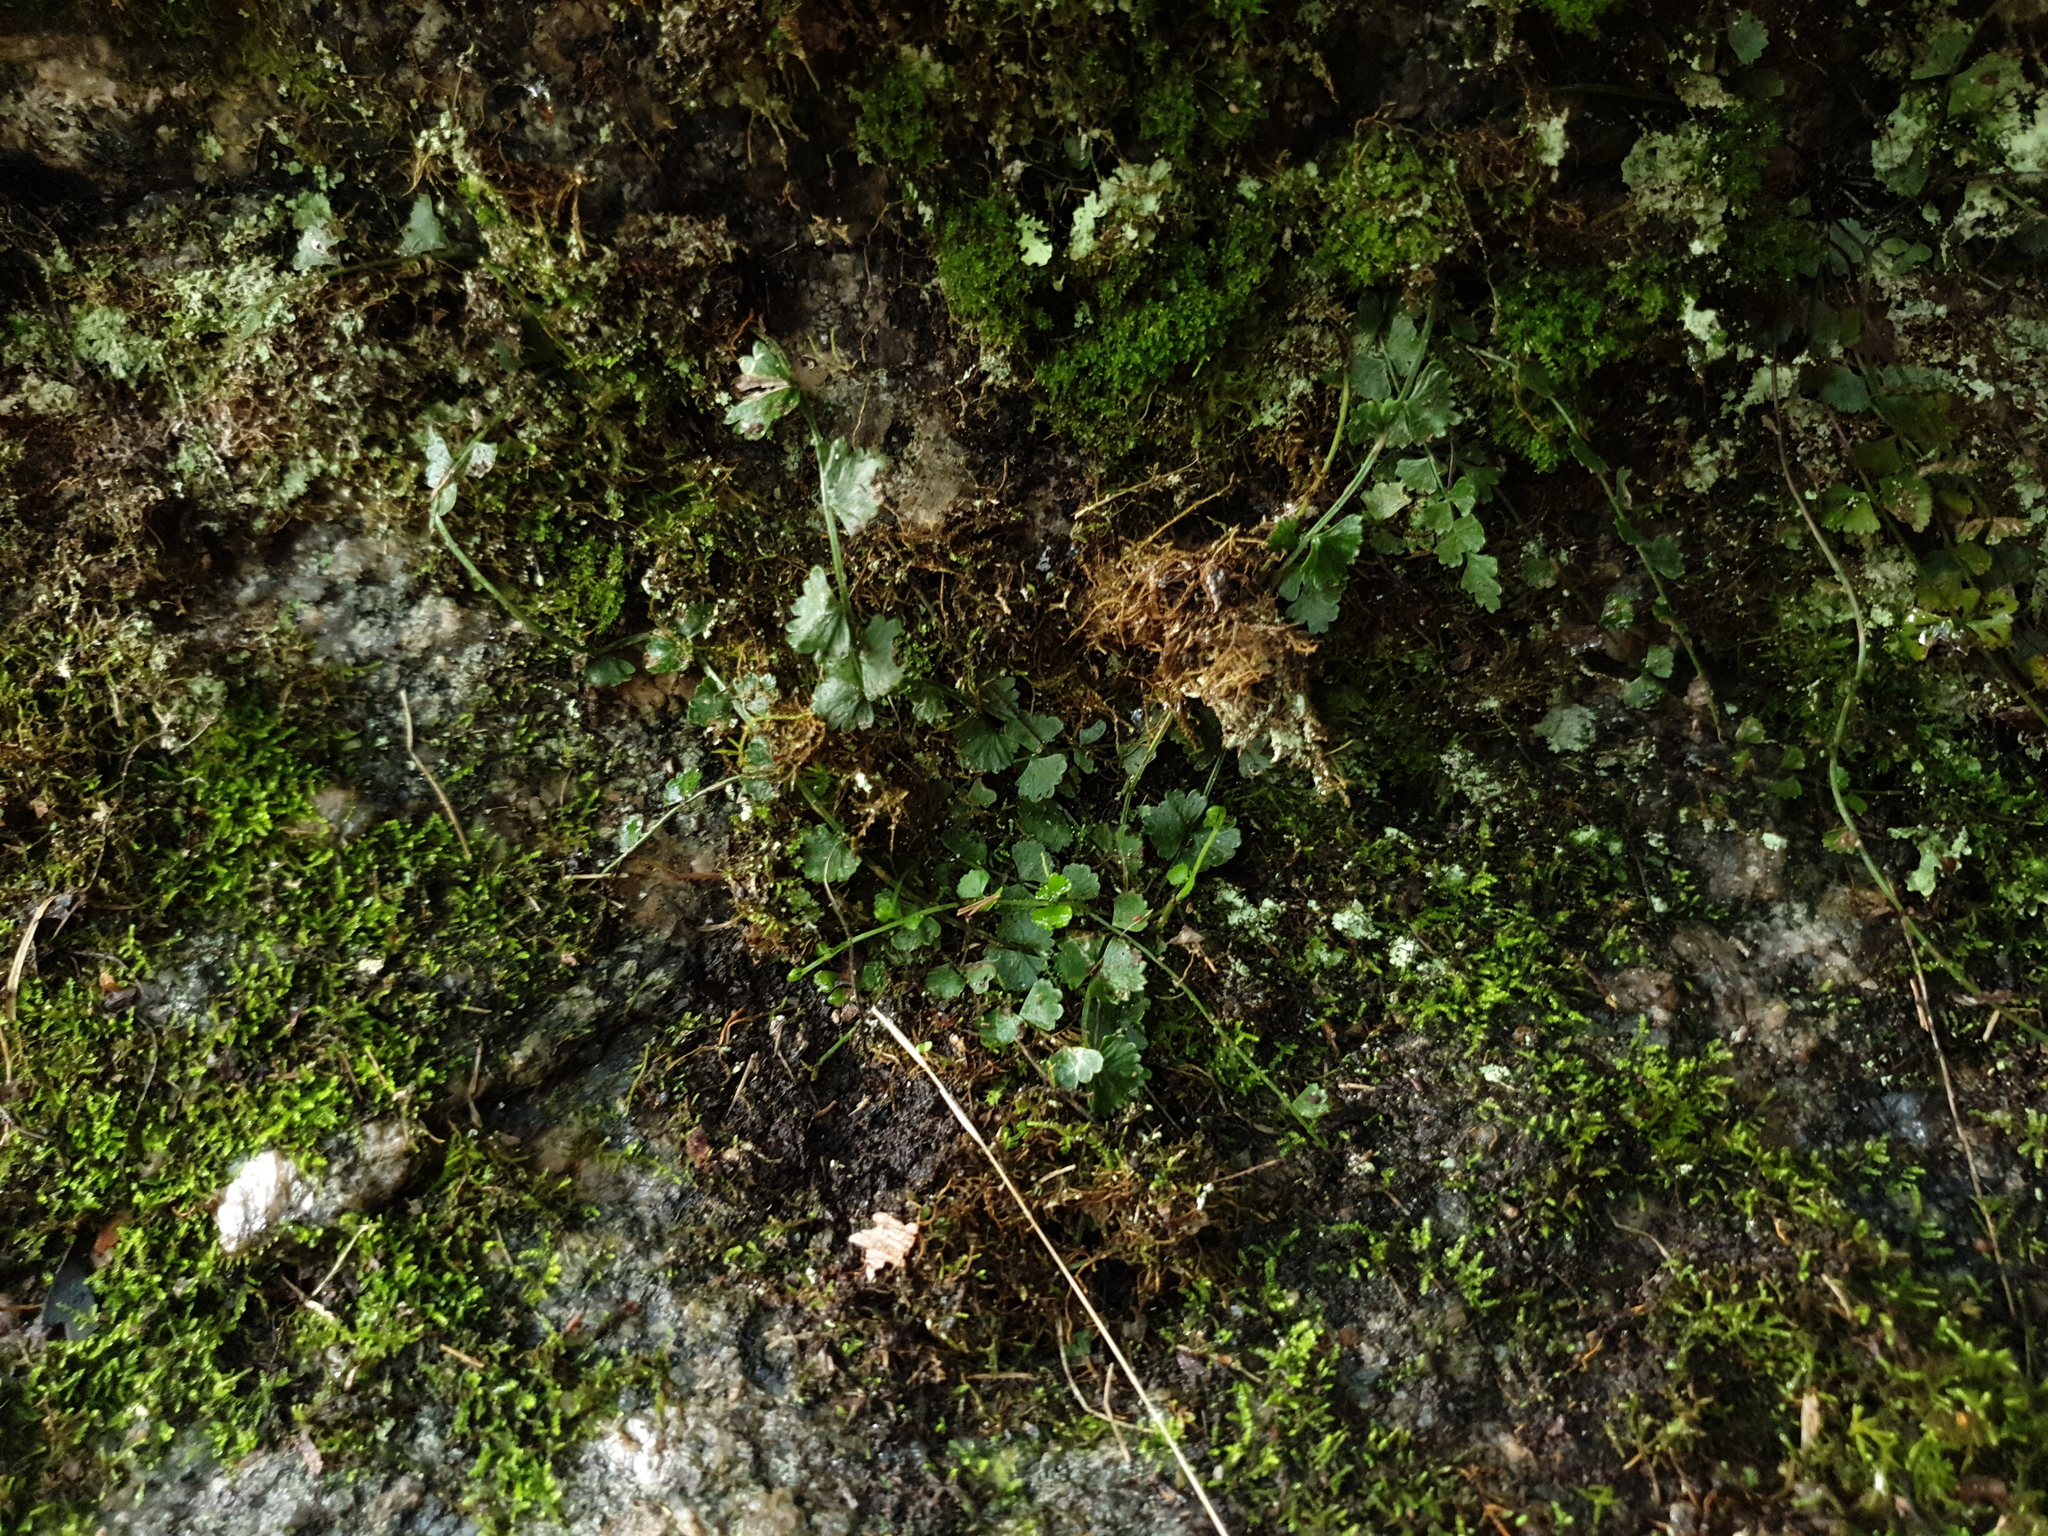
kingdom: Plantae
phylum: Tracheophyta
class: Polypodiopsida
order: Polypodiales
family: Aspleniaceae
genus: Asplenium
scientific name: Asplenium flabellifolium
